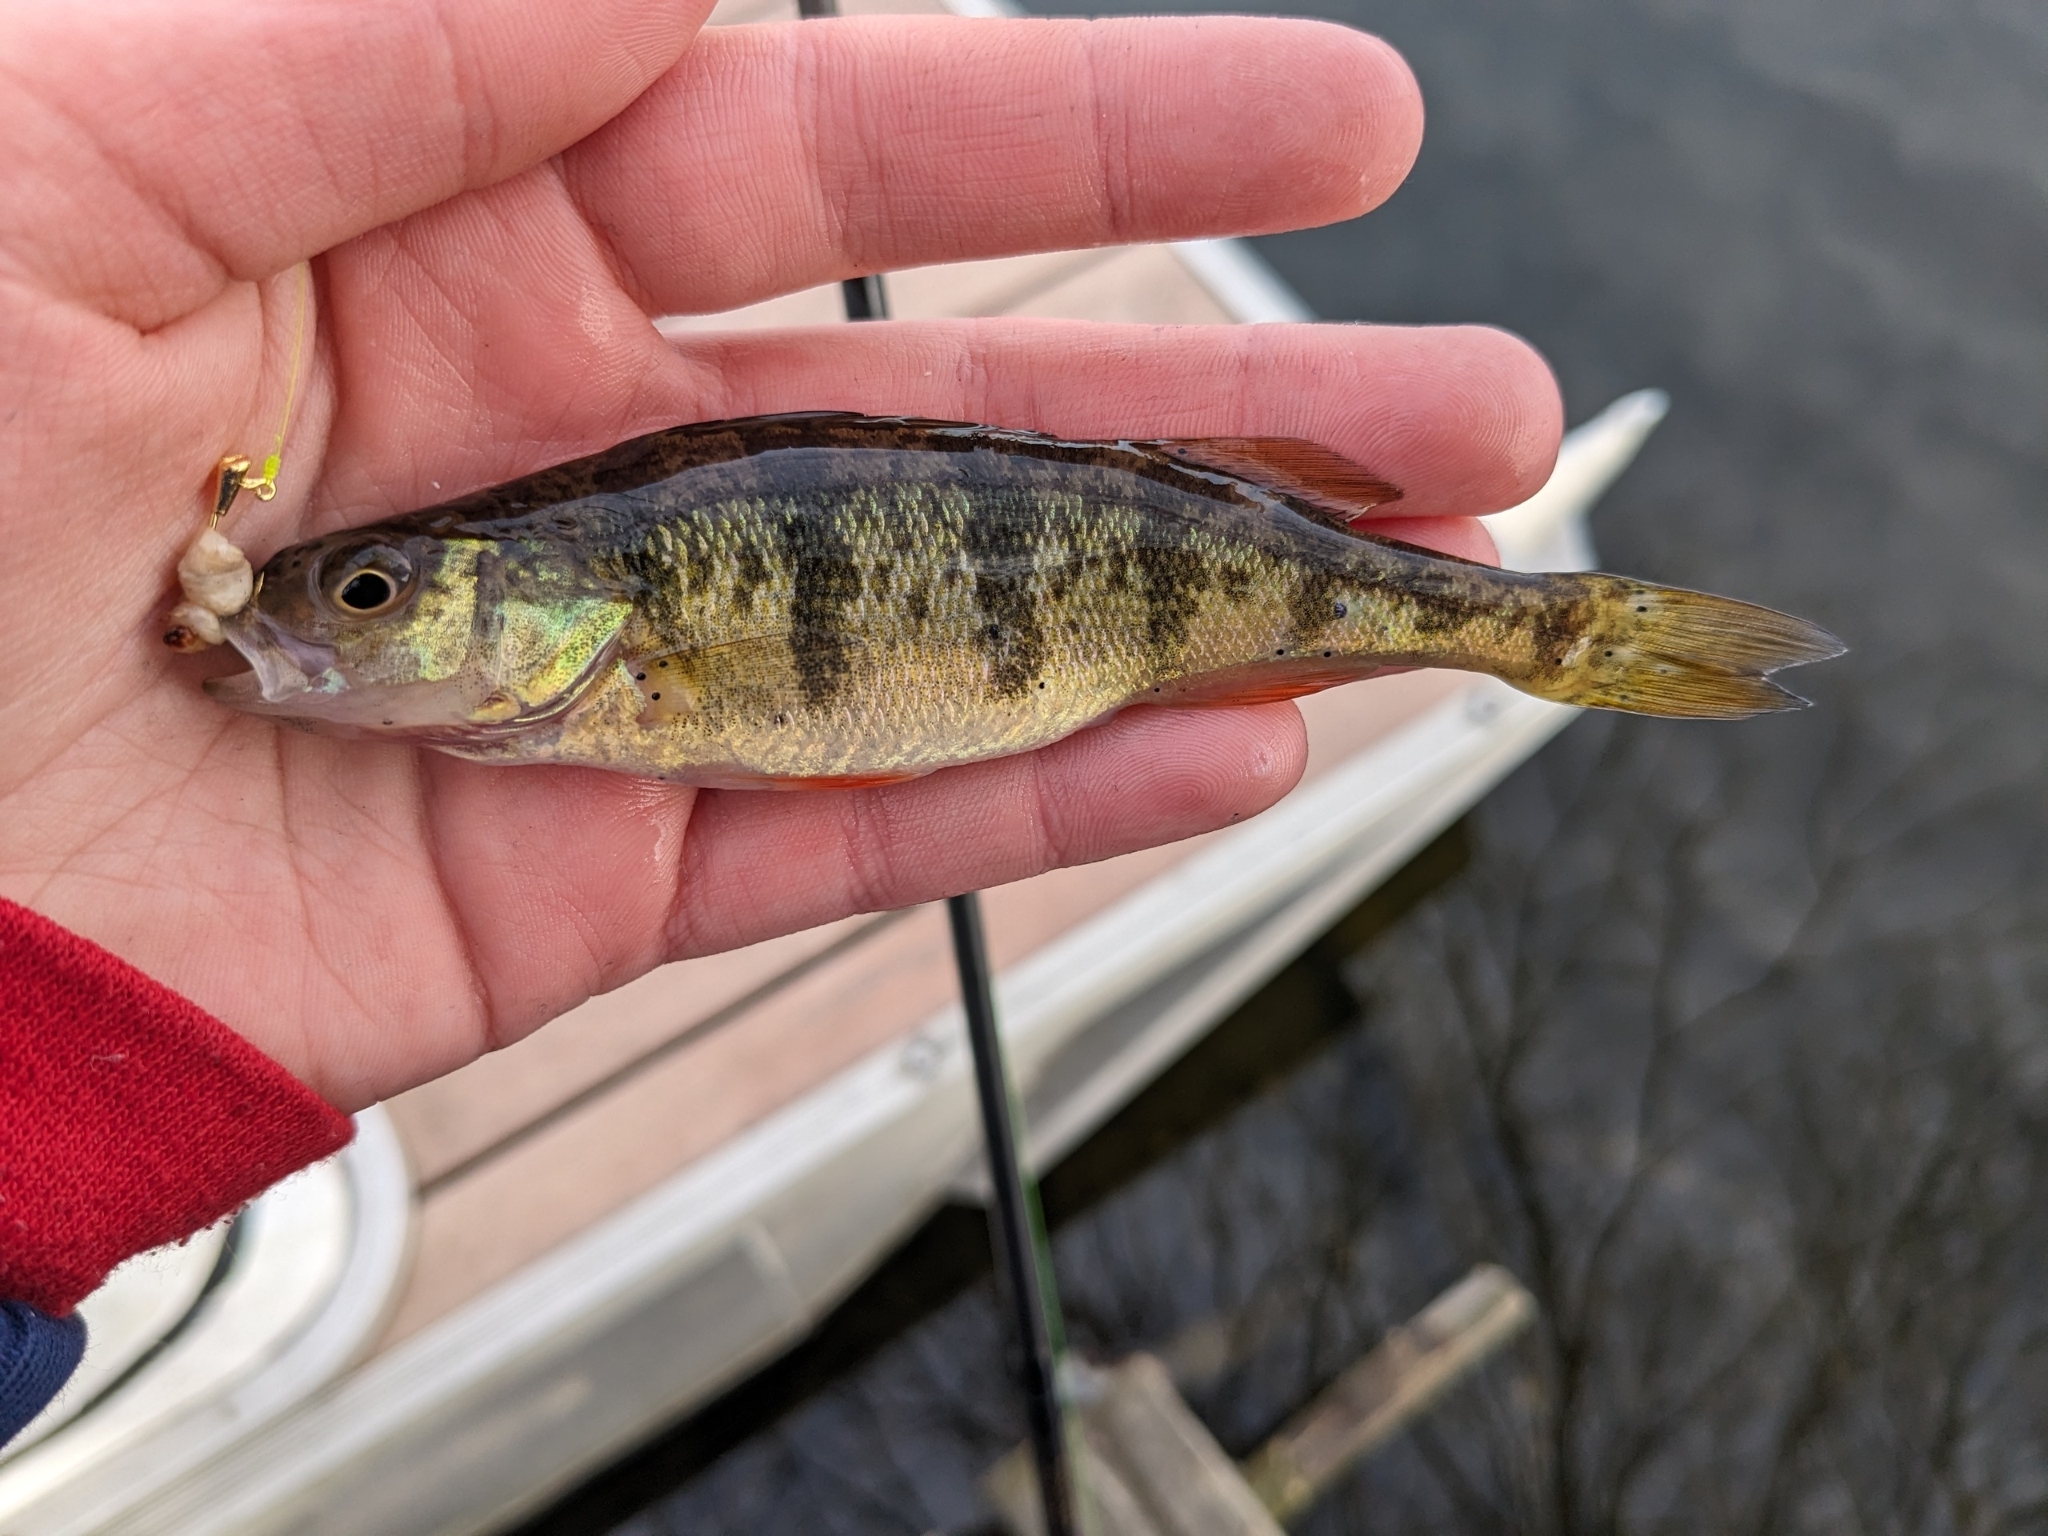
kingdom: Animalia
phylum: Chordata
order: Perciformes
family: Percidae
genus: Perca
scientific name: Perca flavescens
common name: Yellow perch
